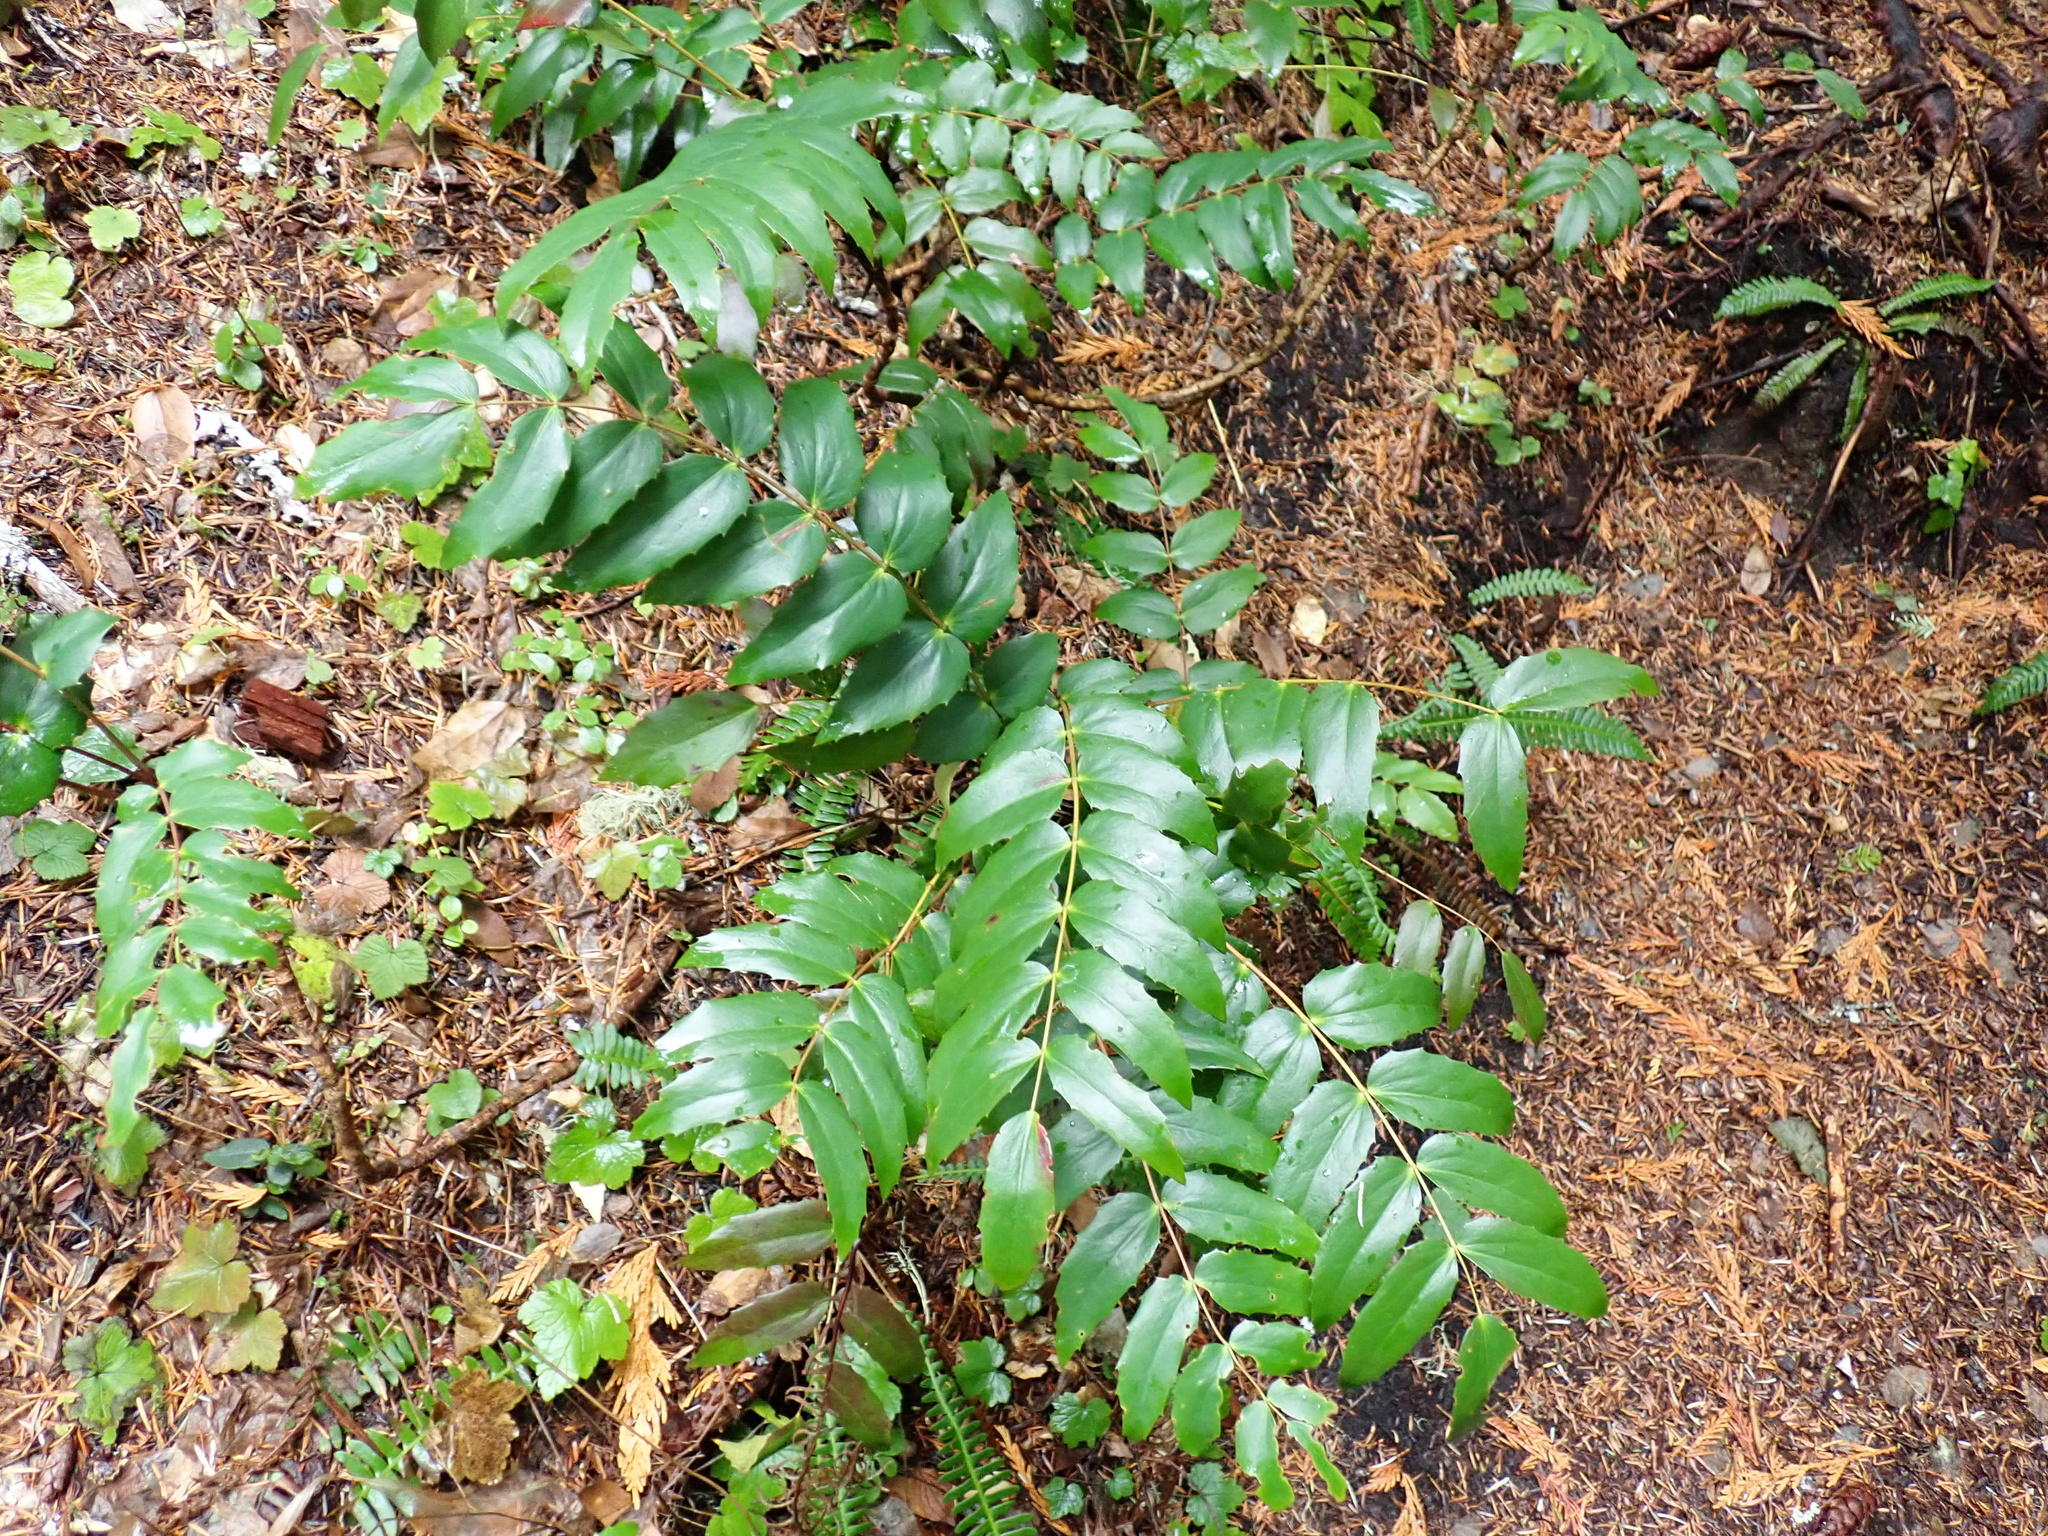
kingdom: Plantae
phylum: Tracheophyta
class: Magnoliopsida
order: Ranunculales
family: Berberidaceae
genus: Mahonia
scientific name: Mahonia nervosa
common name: Cascade oregon-grape
